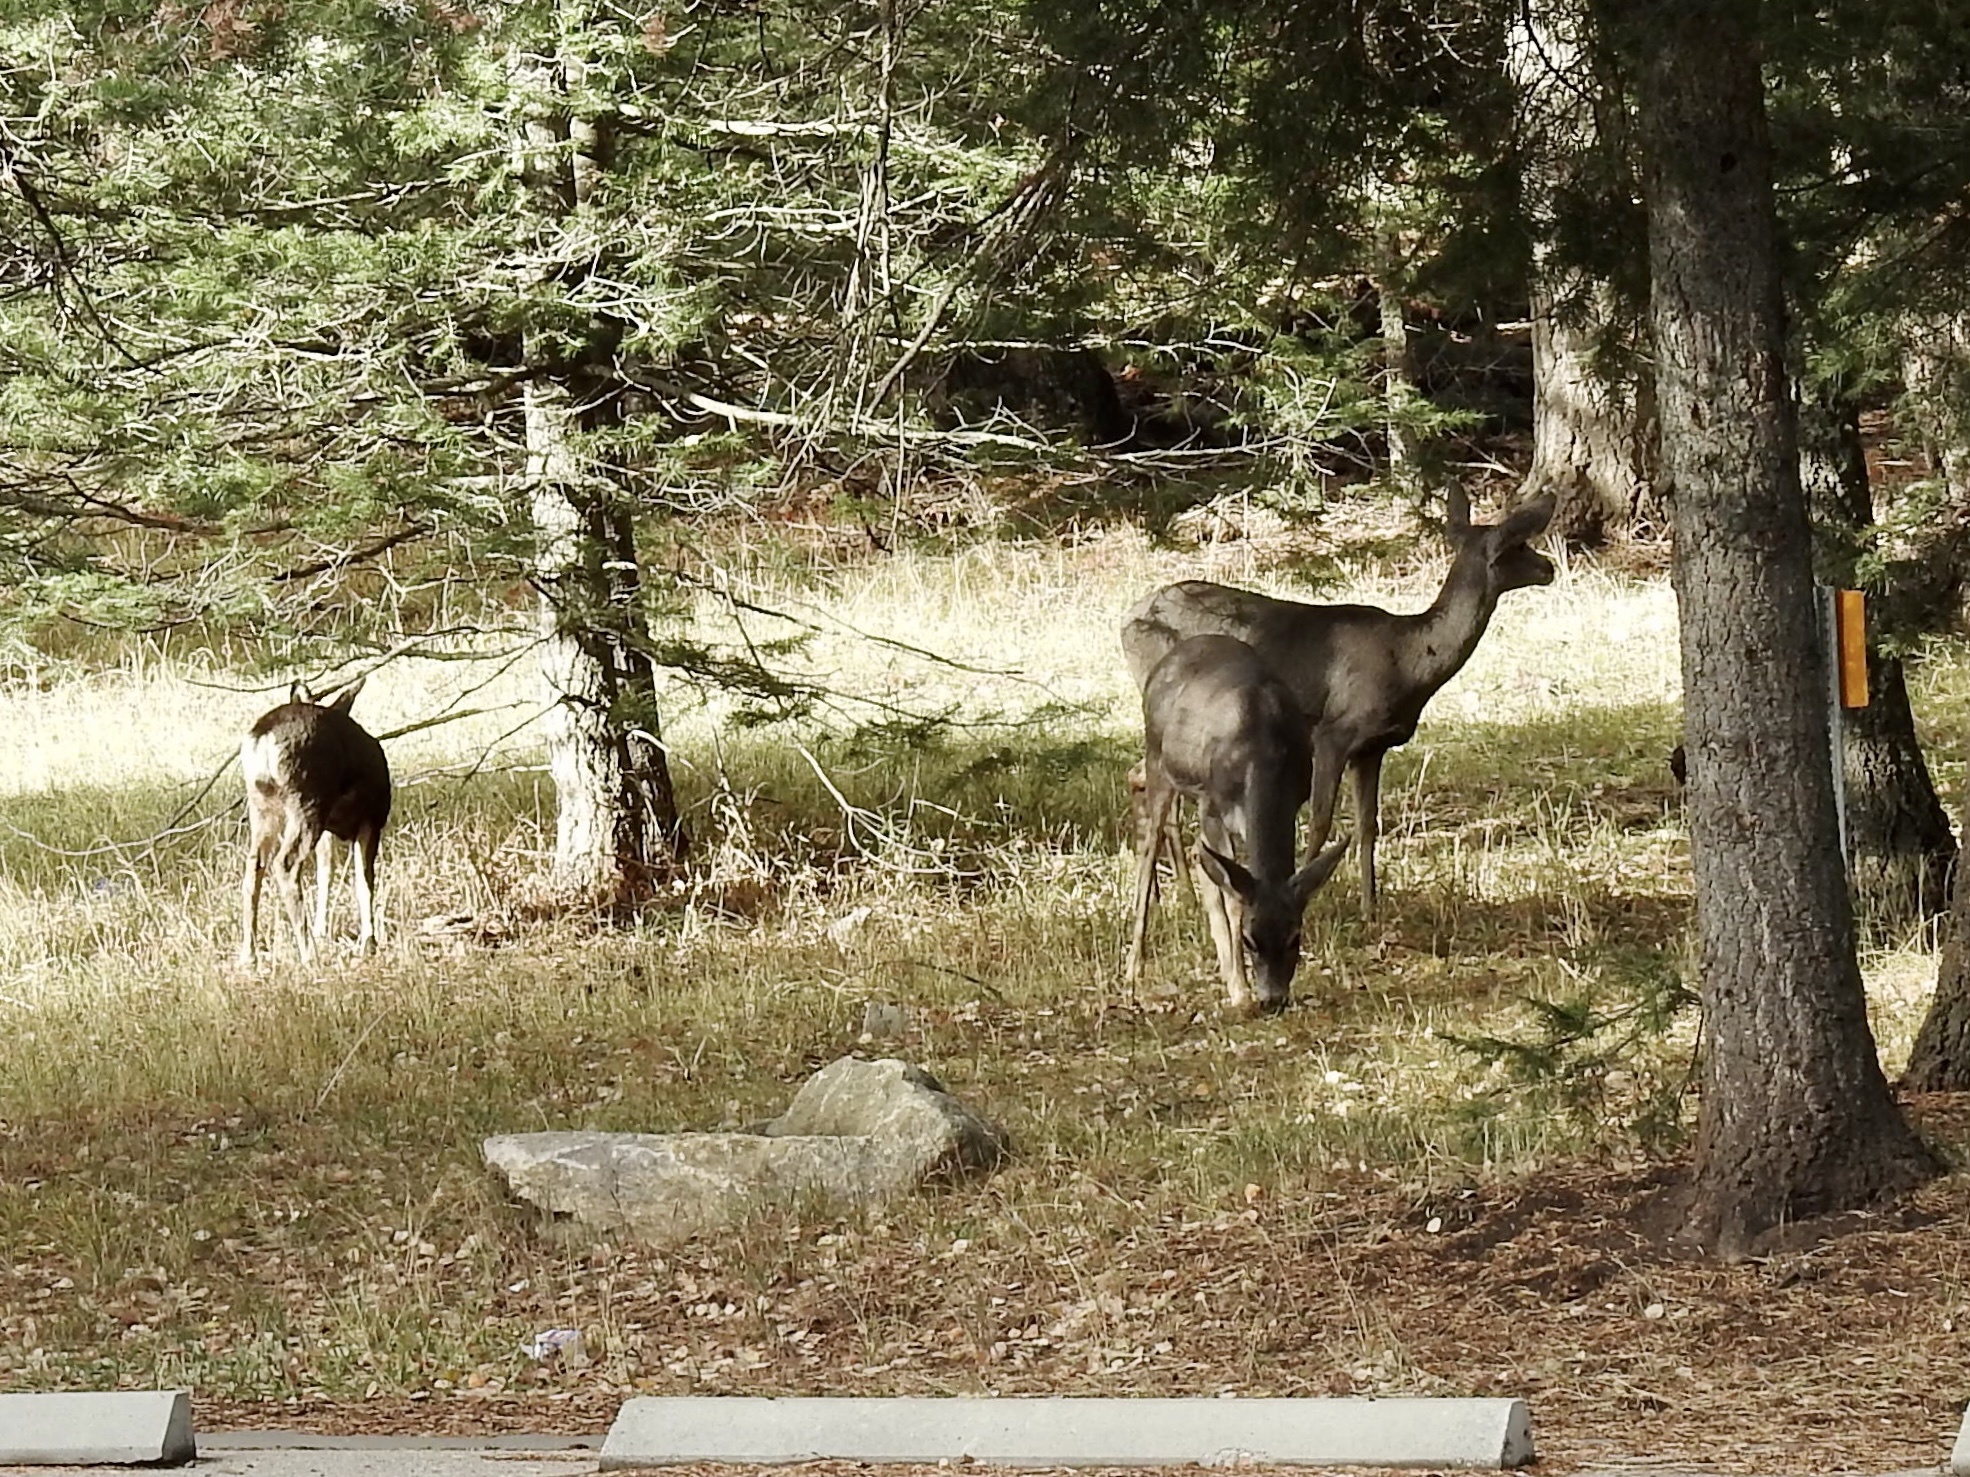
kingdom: Animalia
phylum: Chordata
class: Mammalia
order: Artiodactyla
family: Cervidae
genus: Odocoileus
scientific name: Odocoileus hemionus
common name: Mule deer
